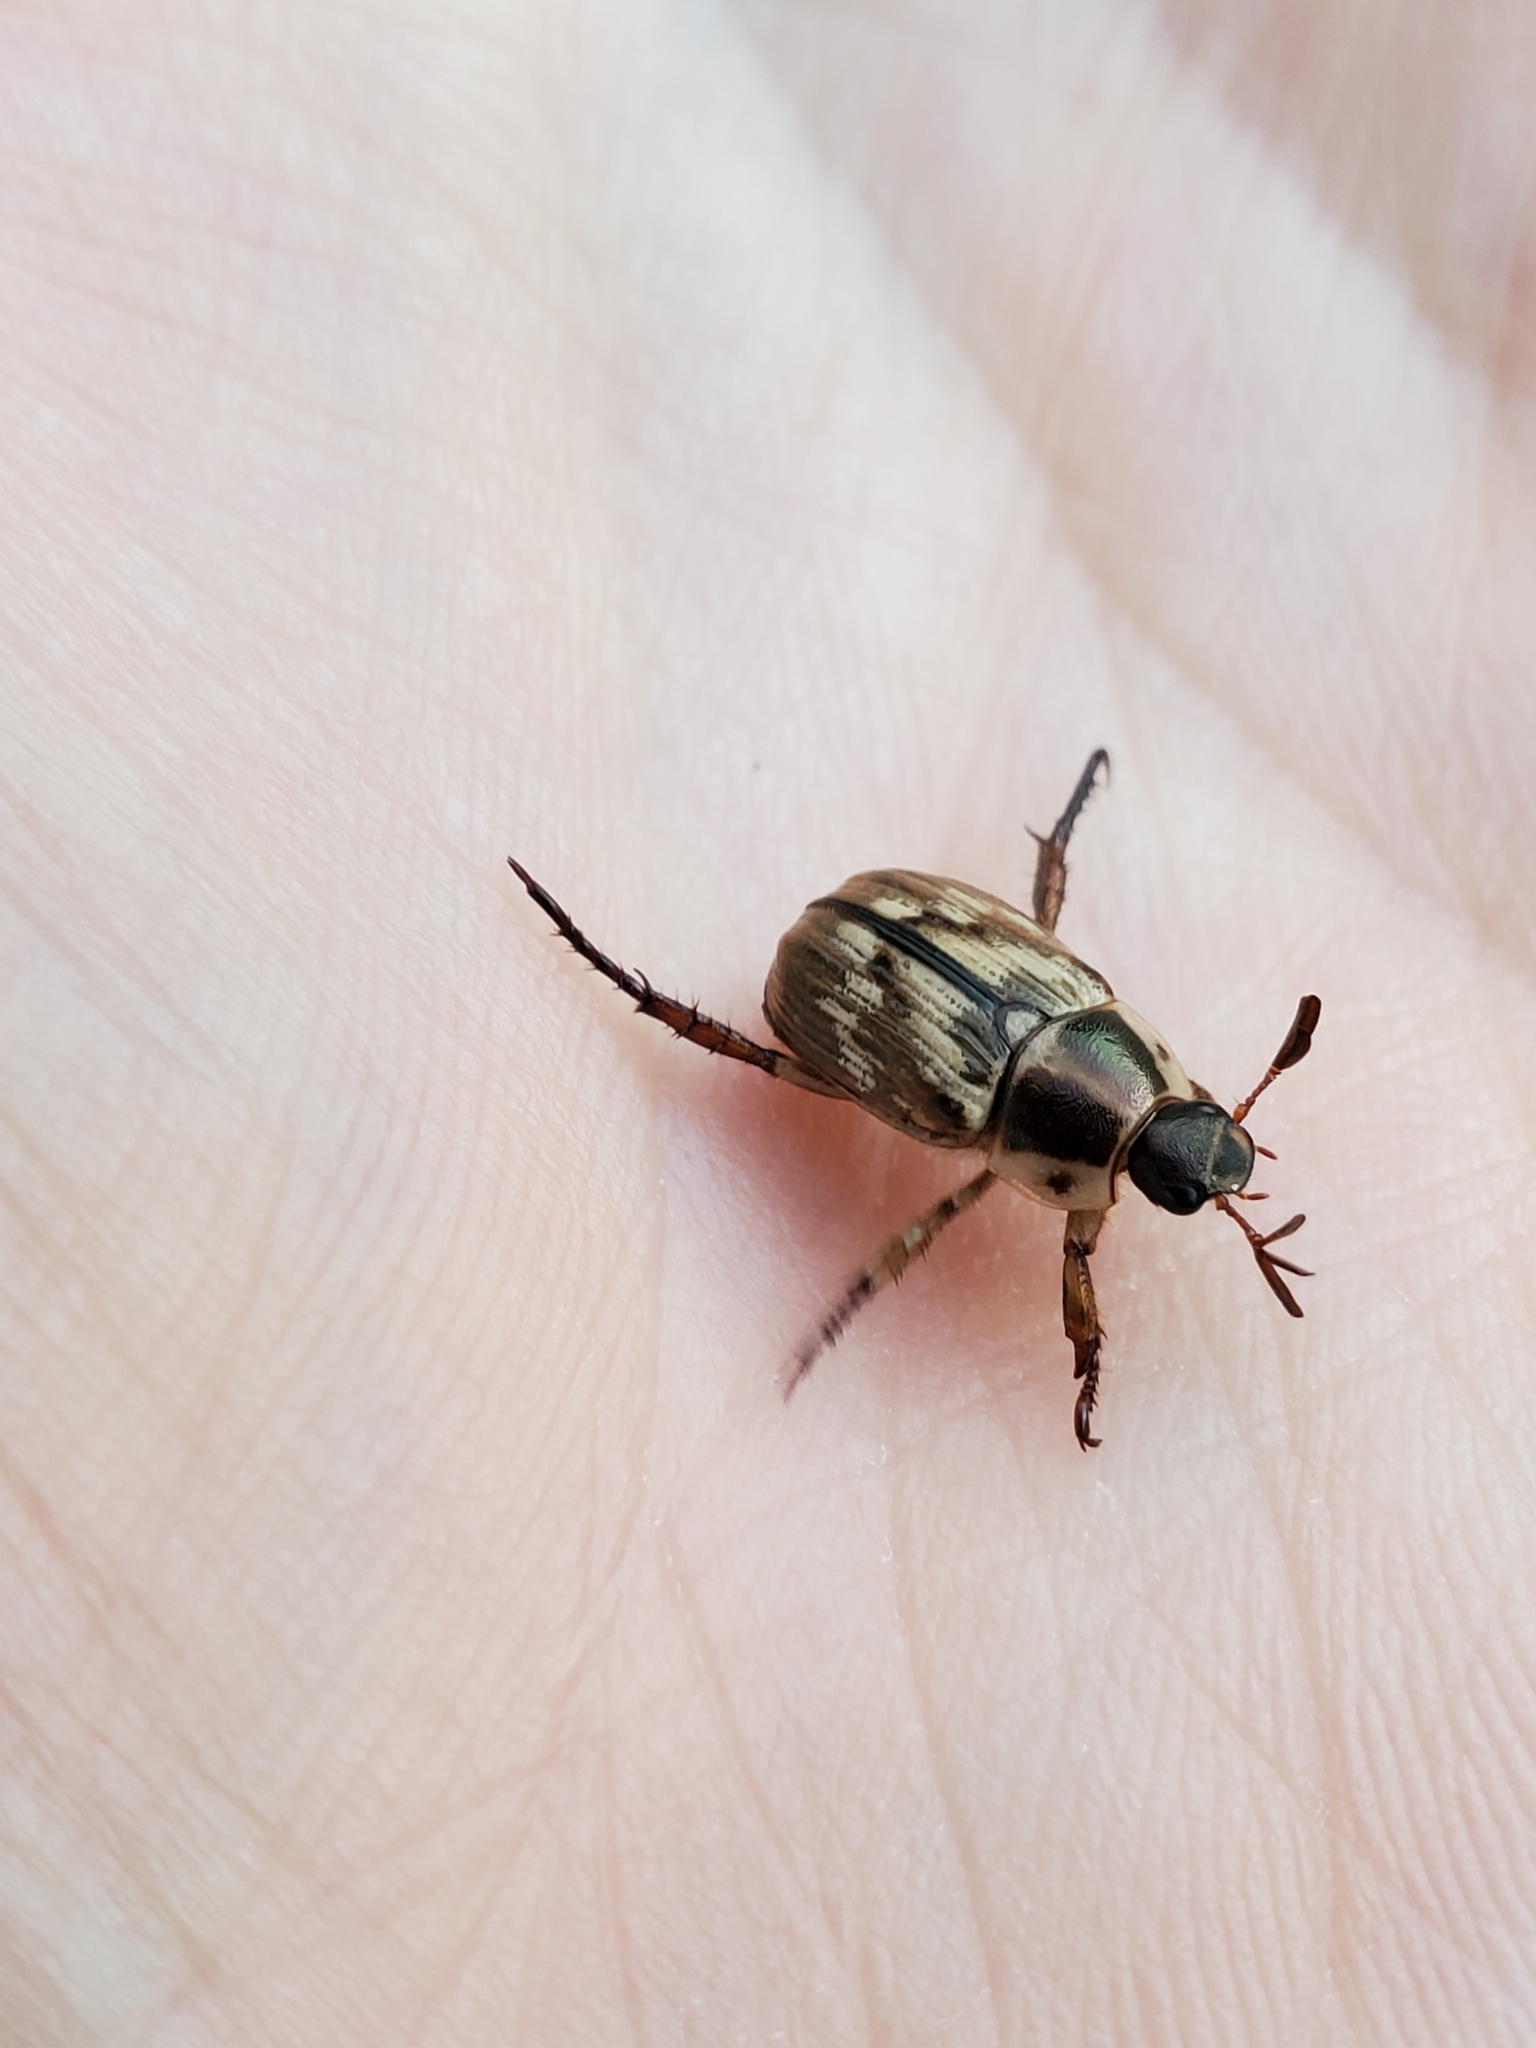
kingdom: Animalia
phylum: Arthropoda
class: Insecta
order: Coleoptera
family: Scarabaeidae
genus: Exomala
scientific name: Exomala orientalis
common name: Oriental beetle
